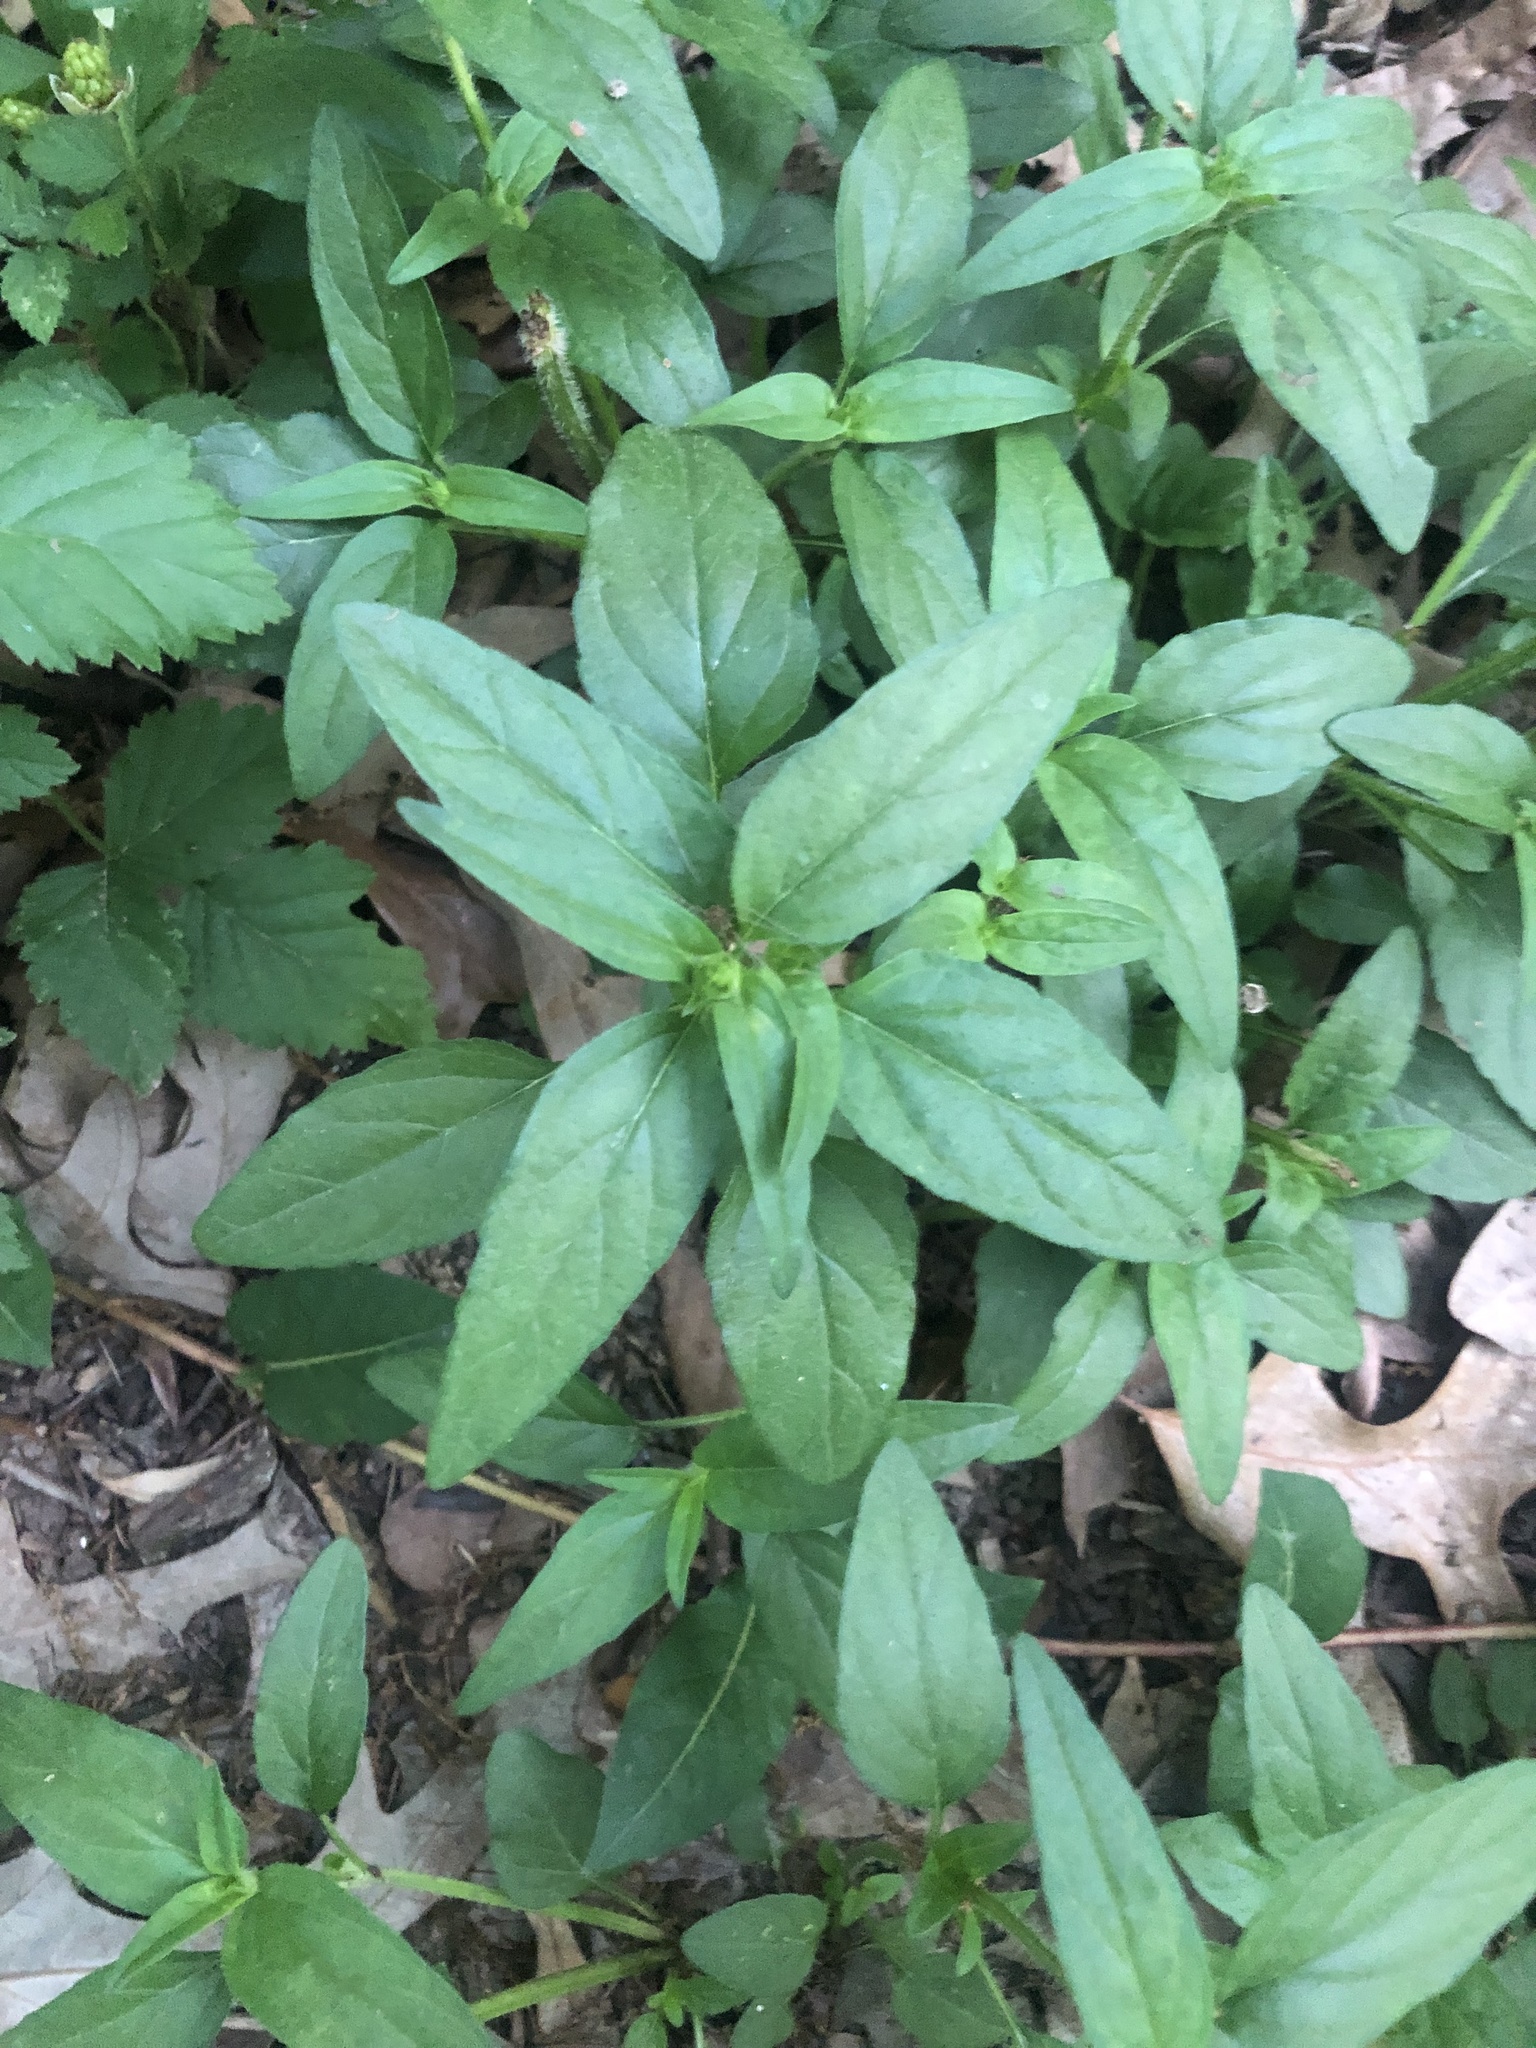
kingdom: Plantae
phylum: Tracheophyta
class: Magnoliopsida
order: Lamiales
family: Lamiaceae
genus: Prunella
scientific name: Prunella vulgaris
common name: Heal-all
